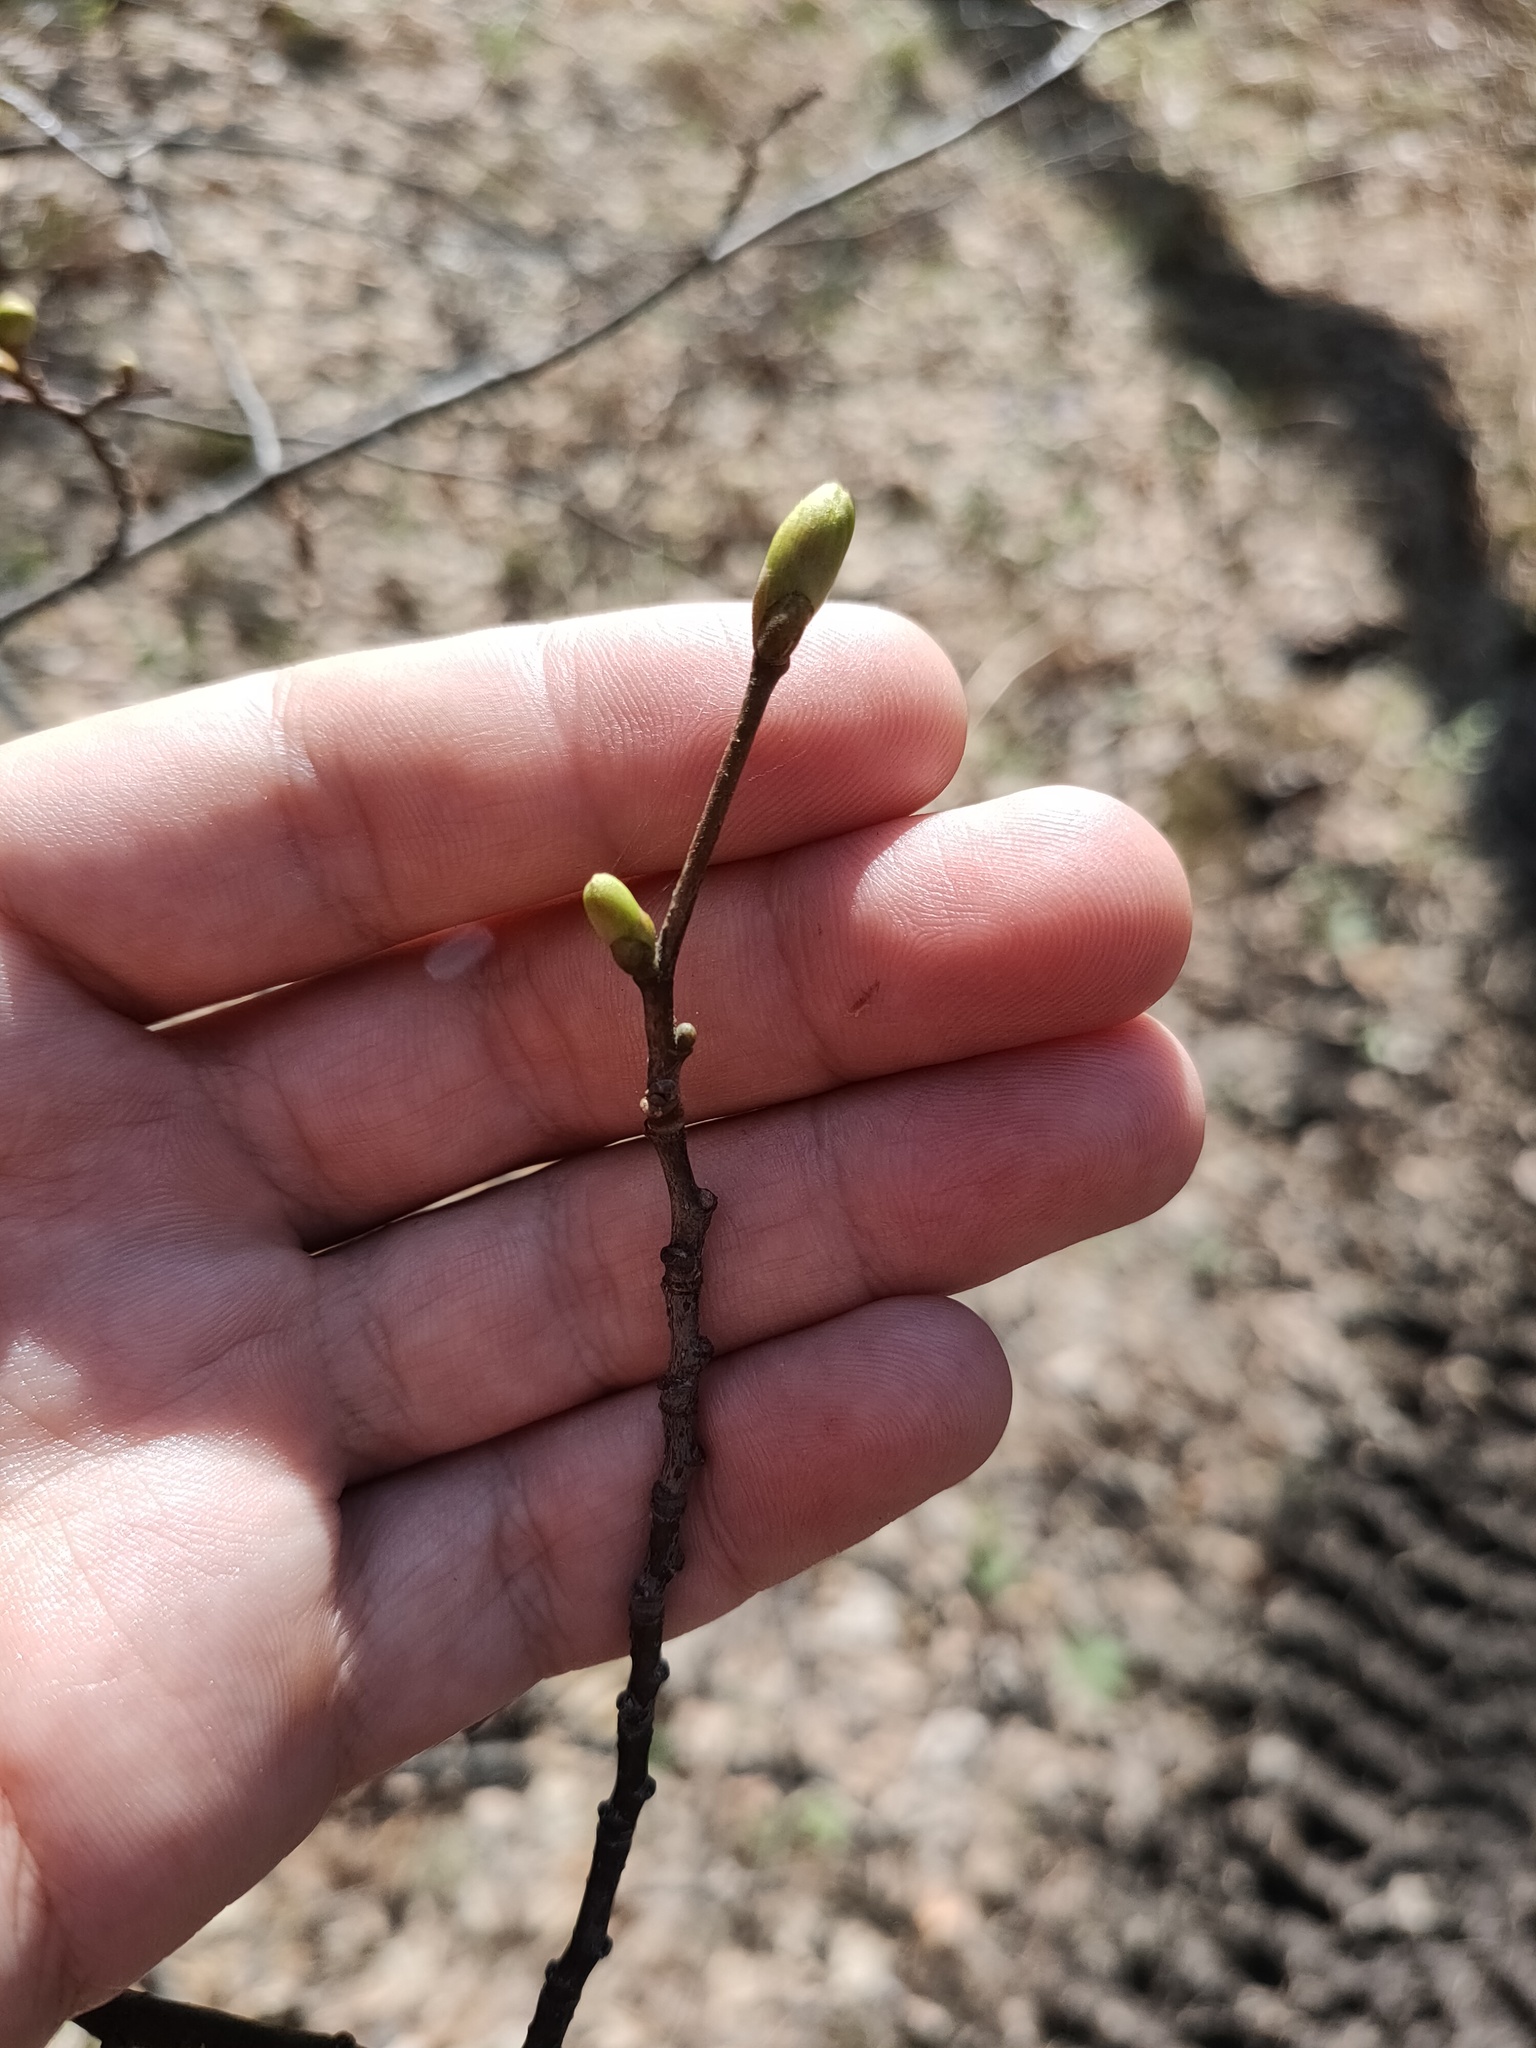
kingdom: Plantae
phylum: Tracheophyta
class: Magnoliopsida
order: Malvales
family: Malvaceae
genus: Tilia
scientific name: Tilia cordata
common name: Small-leaved lime
